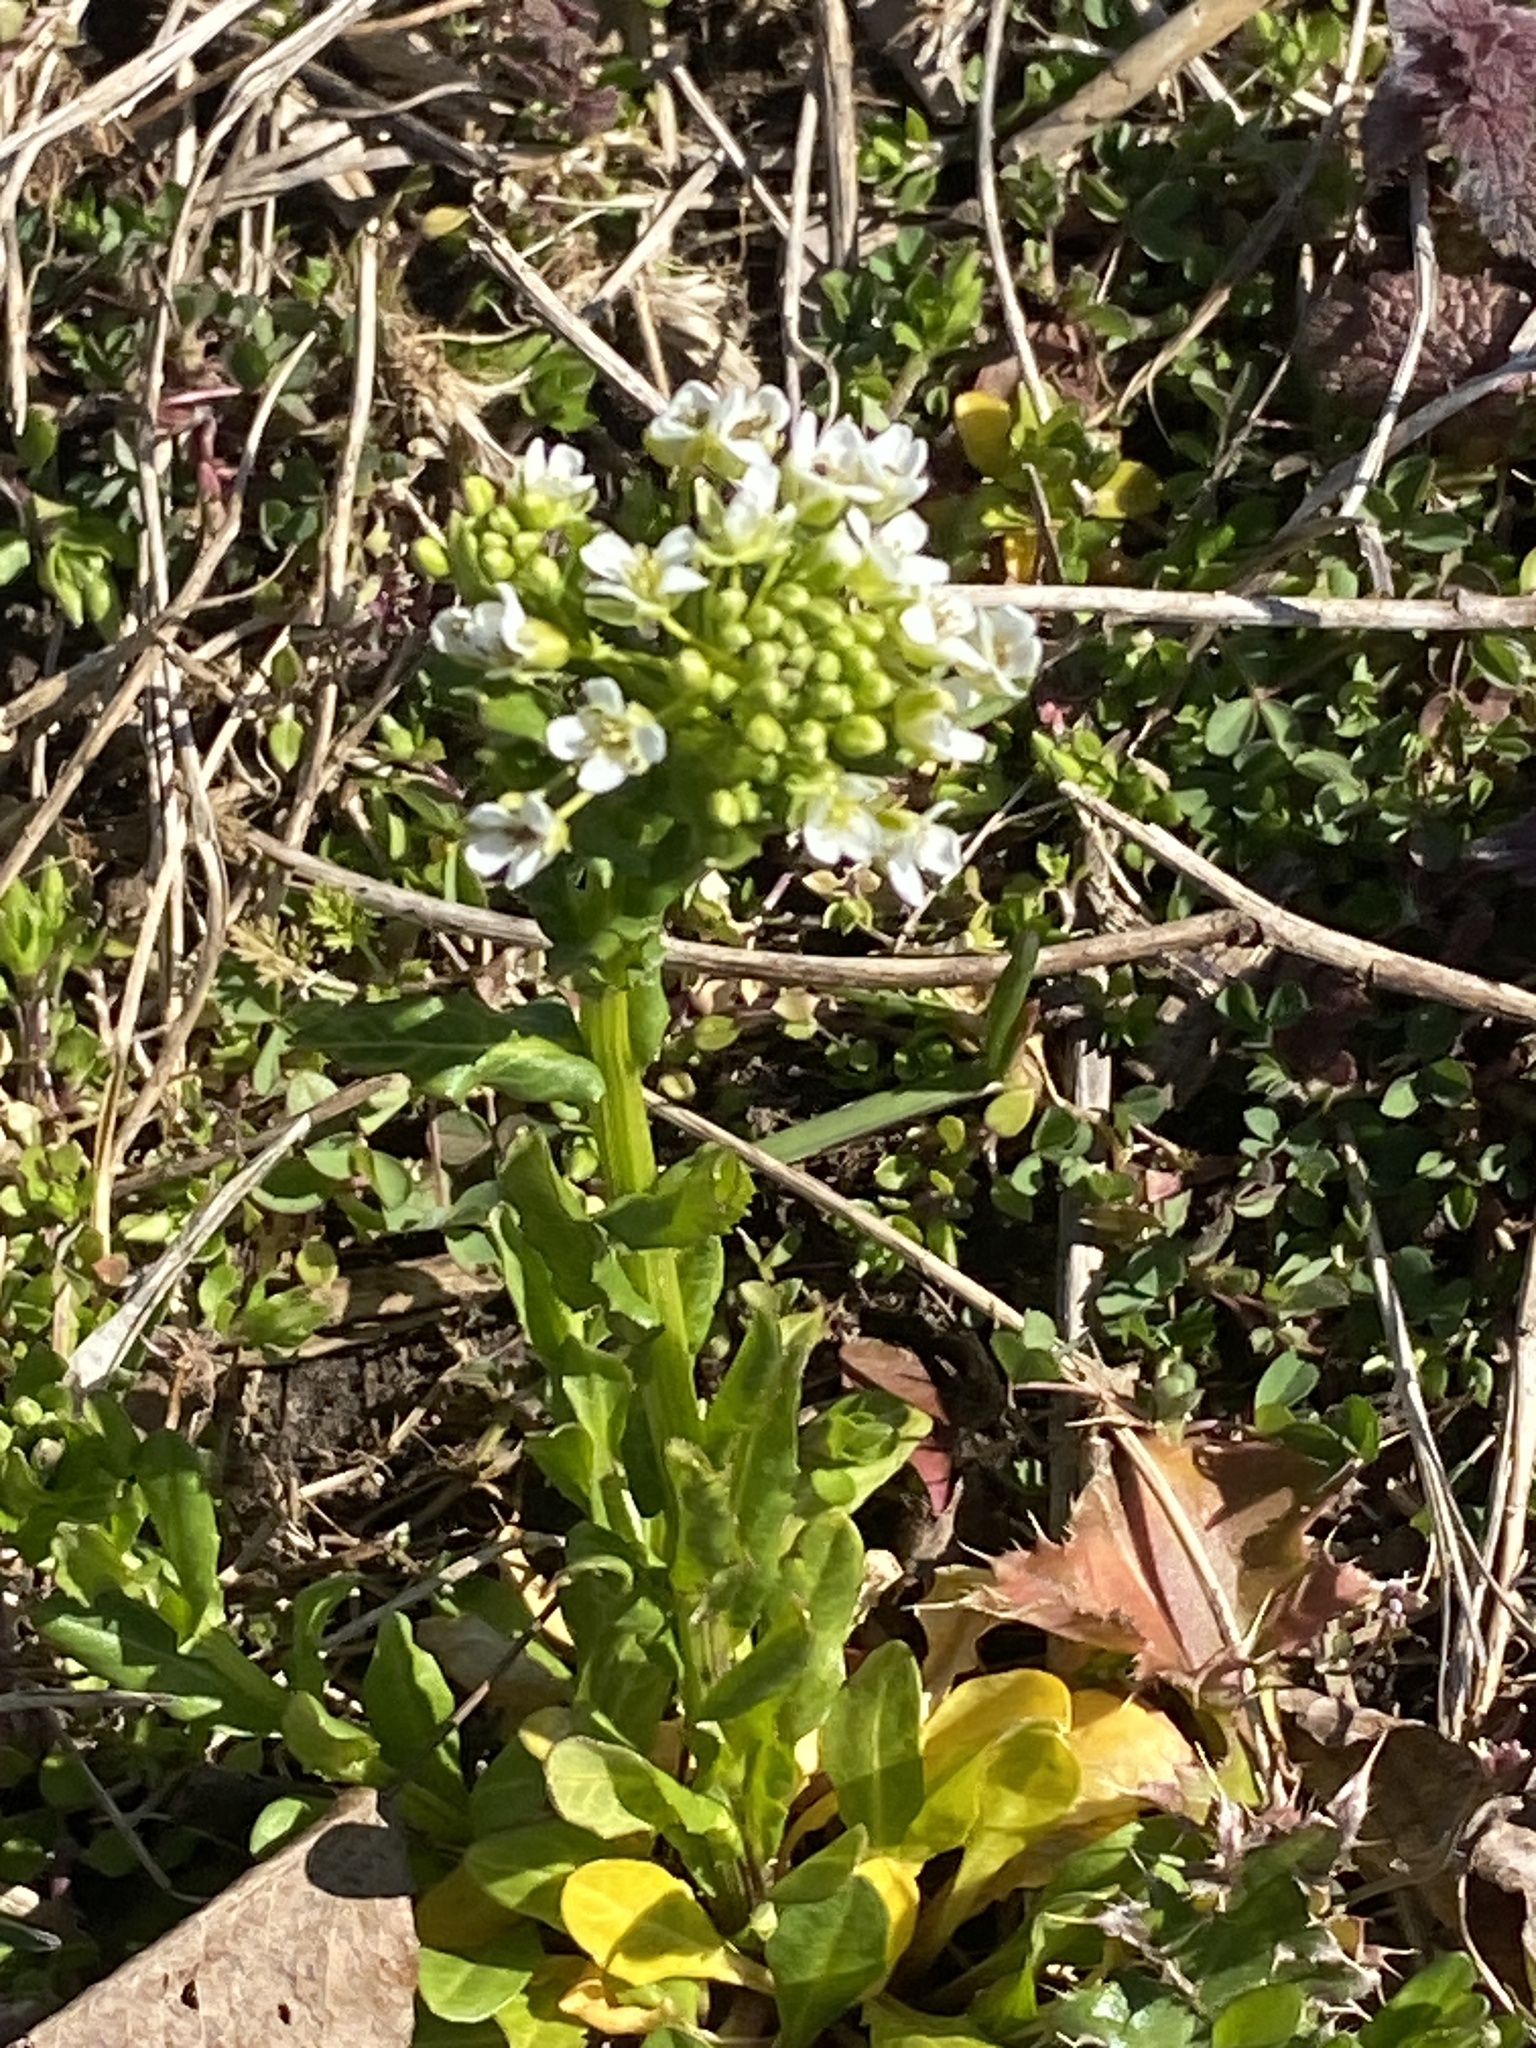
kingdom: Plantae
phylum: Tracheophyta
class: Magnoliopsida
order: Brassicales
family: Brassicaceae
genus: Thlaspi
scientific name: Thlaspi arvense
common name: Field pennycress
